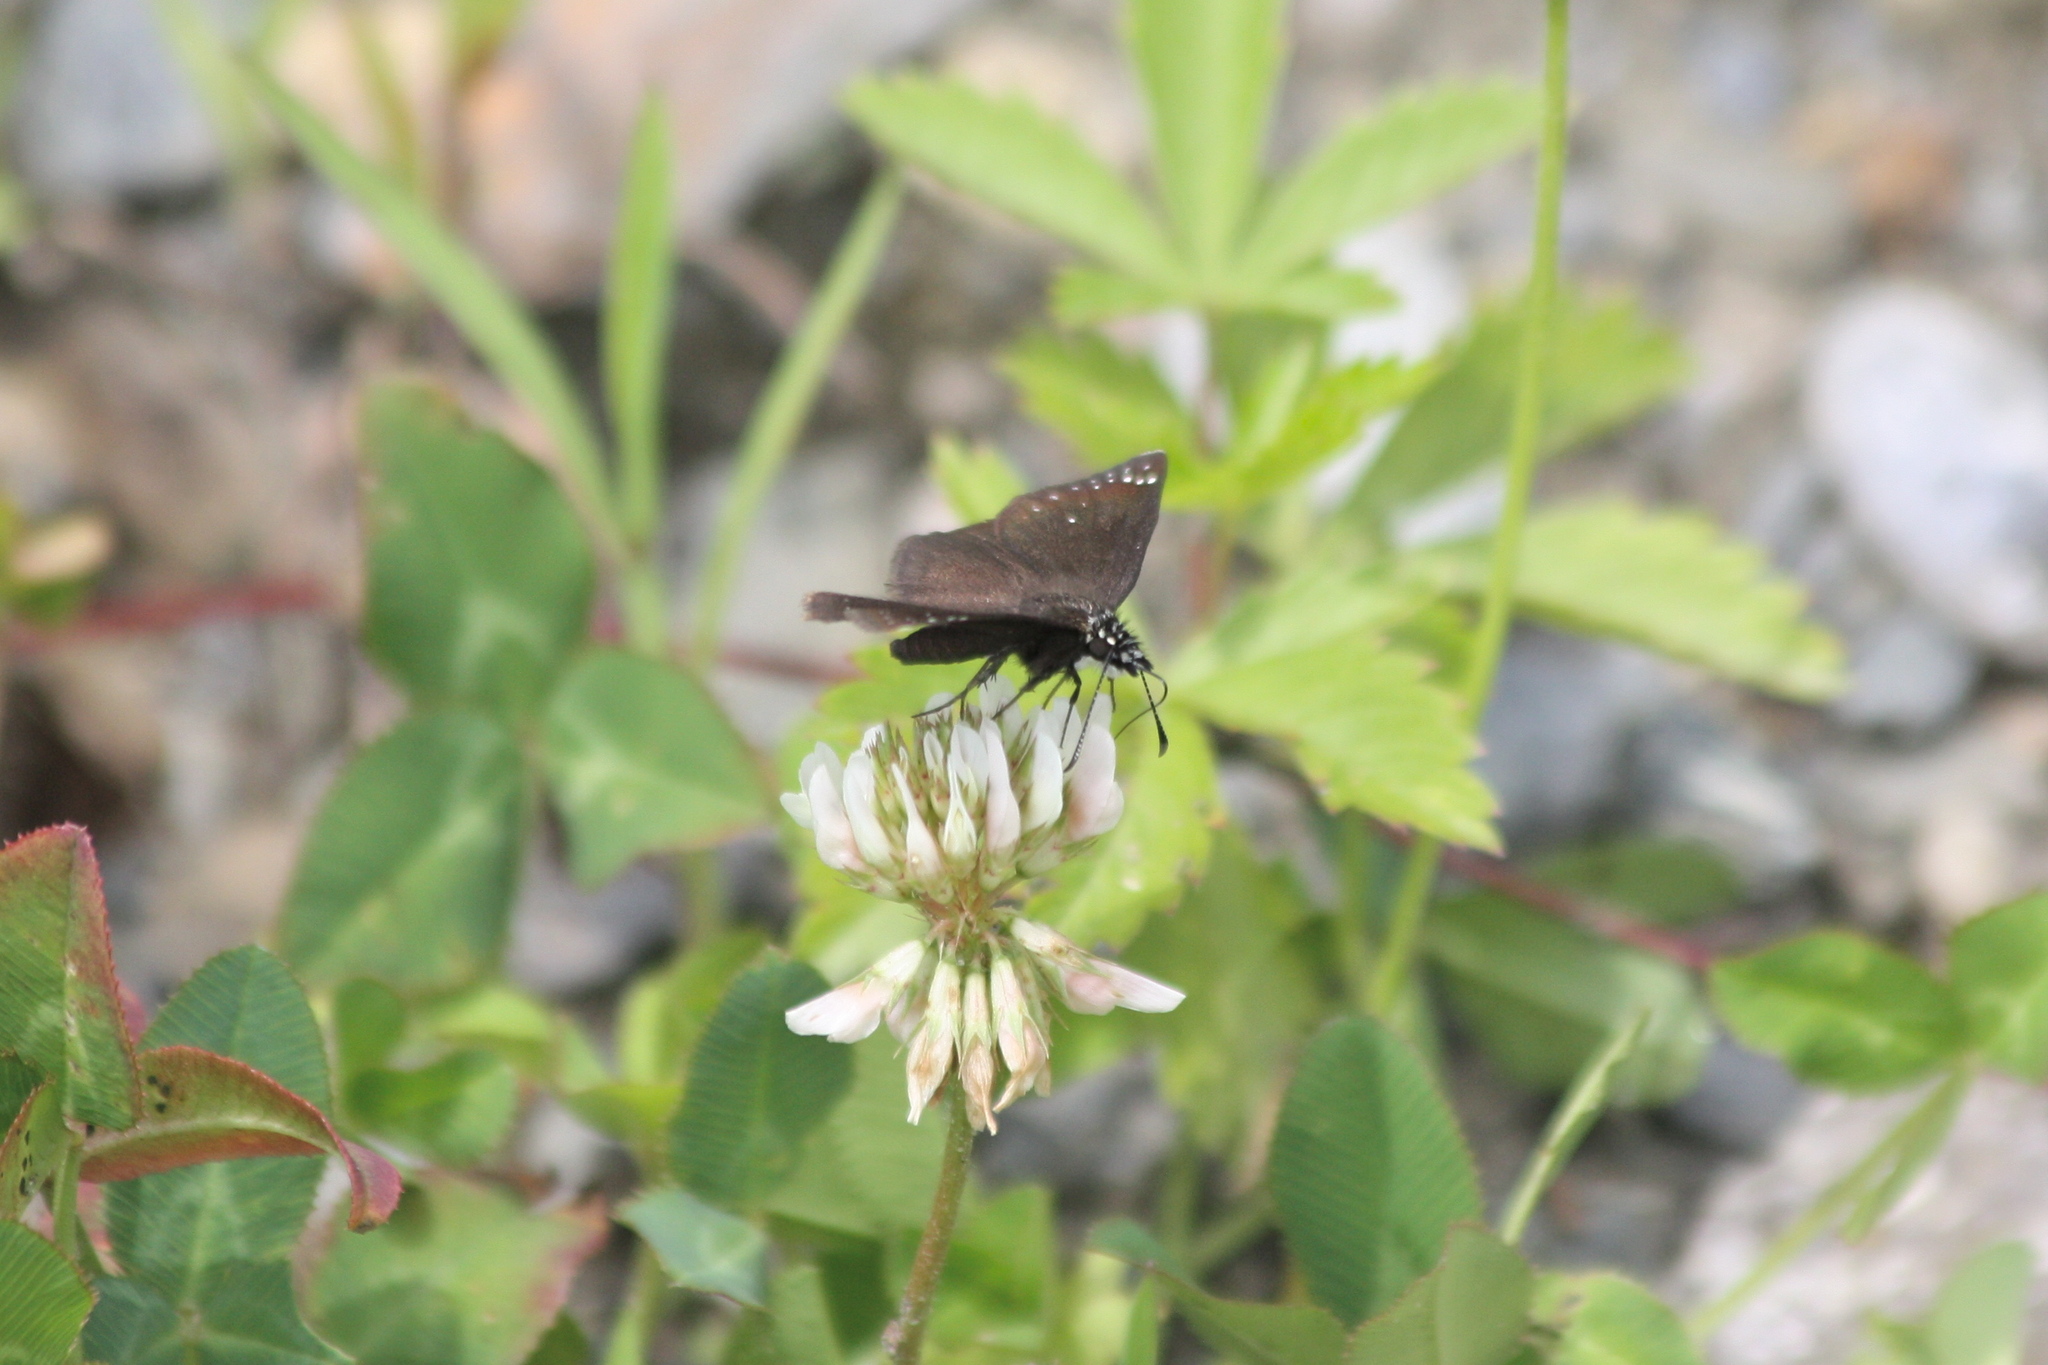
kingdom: Animalia
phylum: Arthropoda
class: Insecta
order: Lepidoptera
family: Hesperiidae
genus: Pholisora
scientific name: Pholisora catullus
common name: Common sootywing
